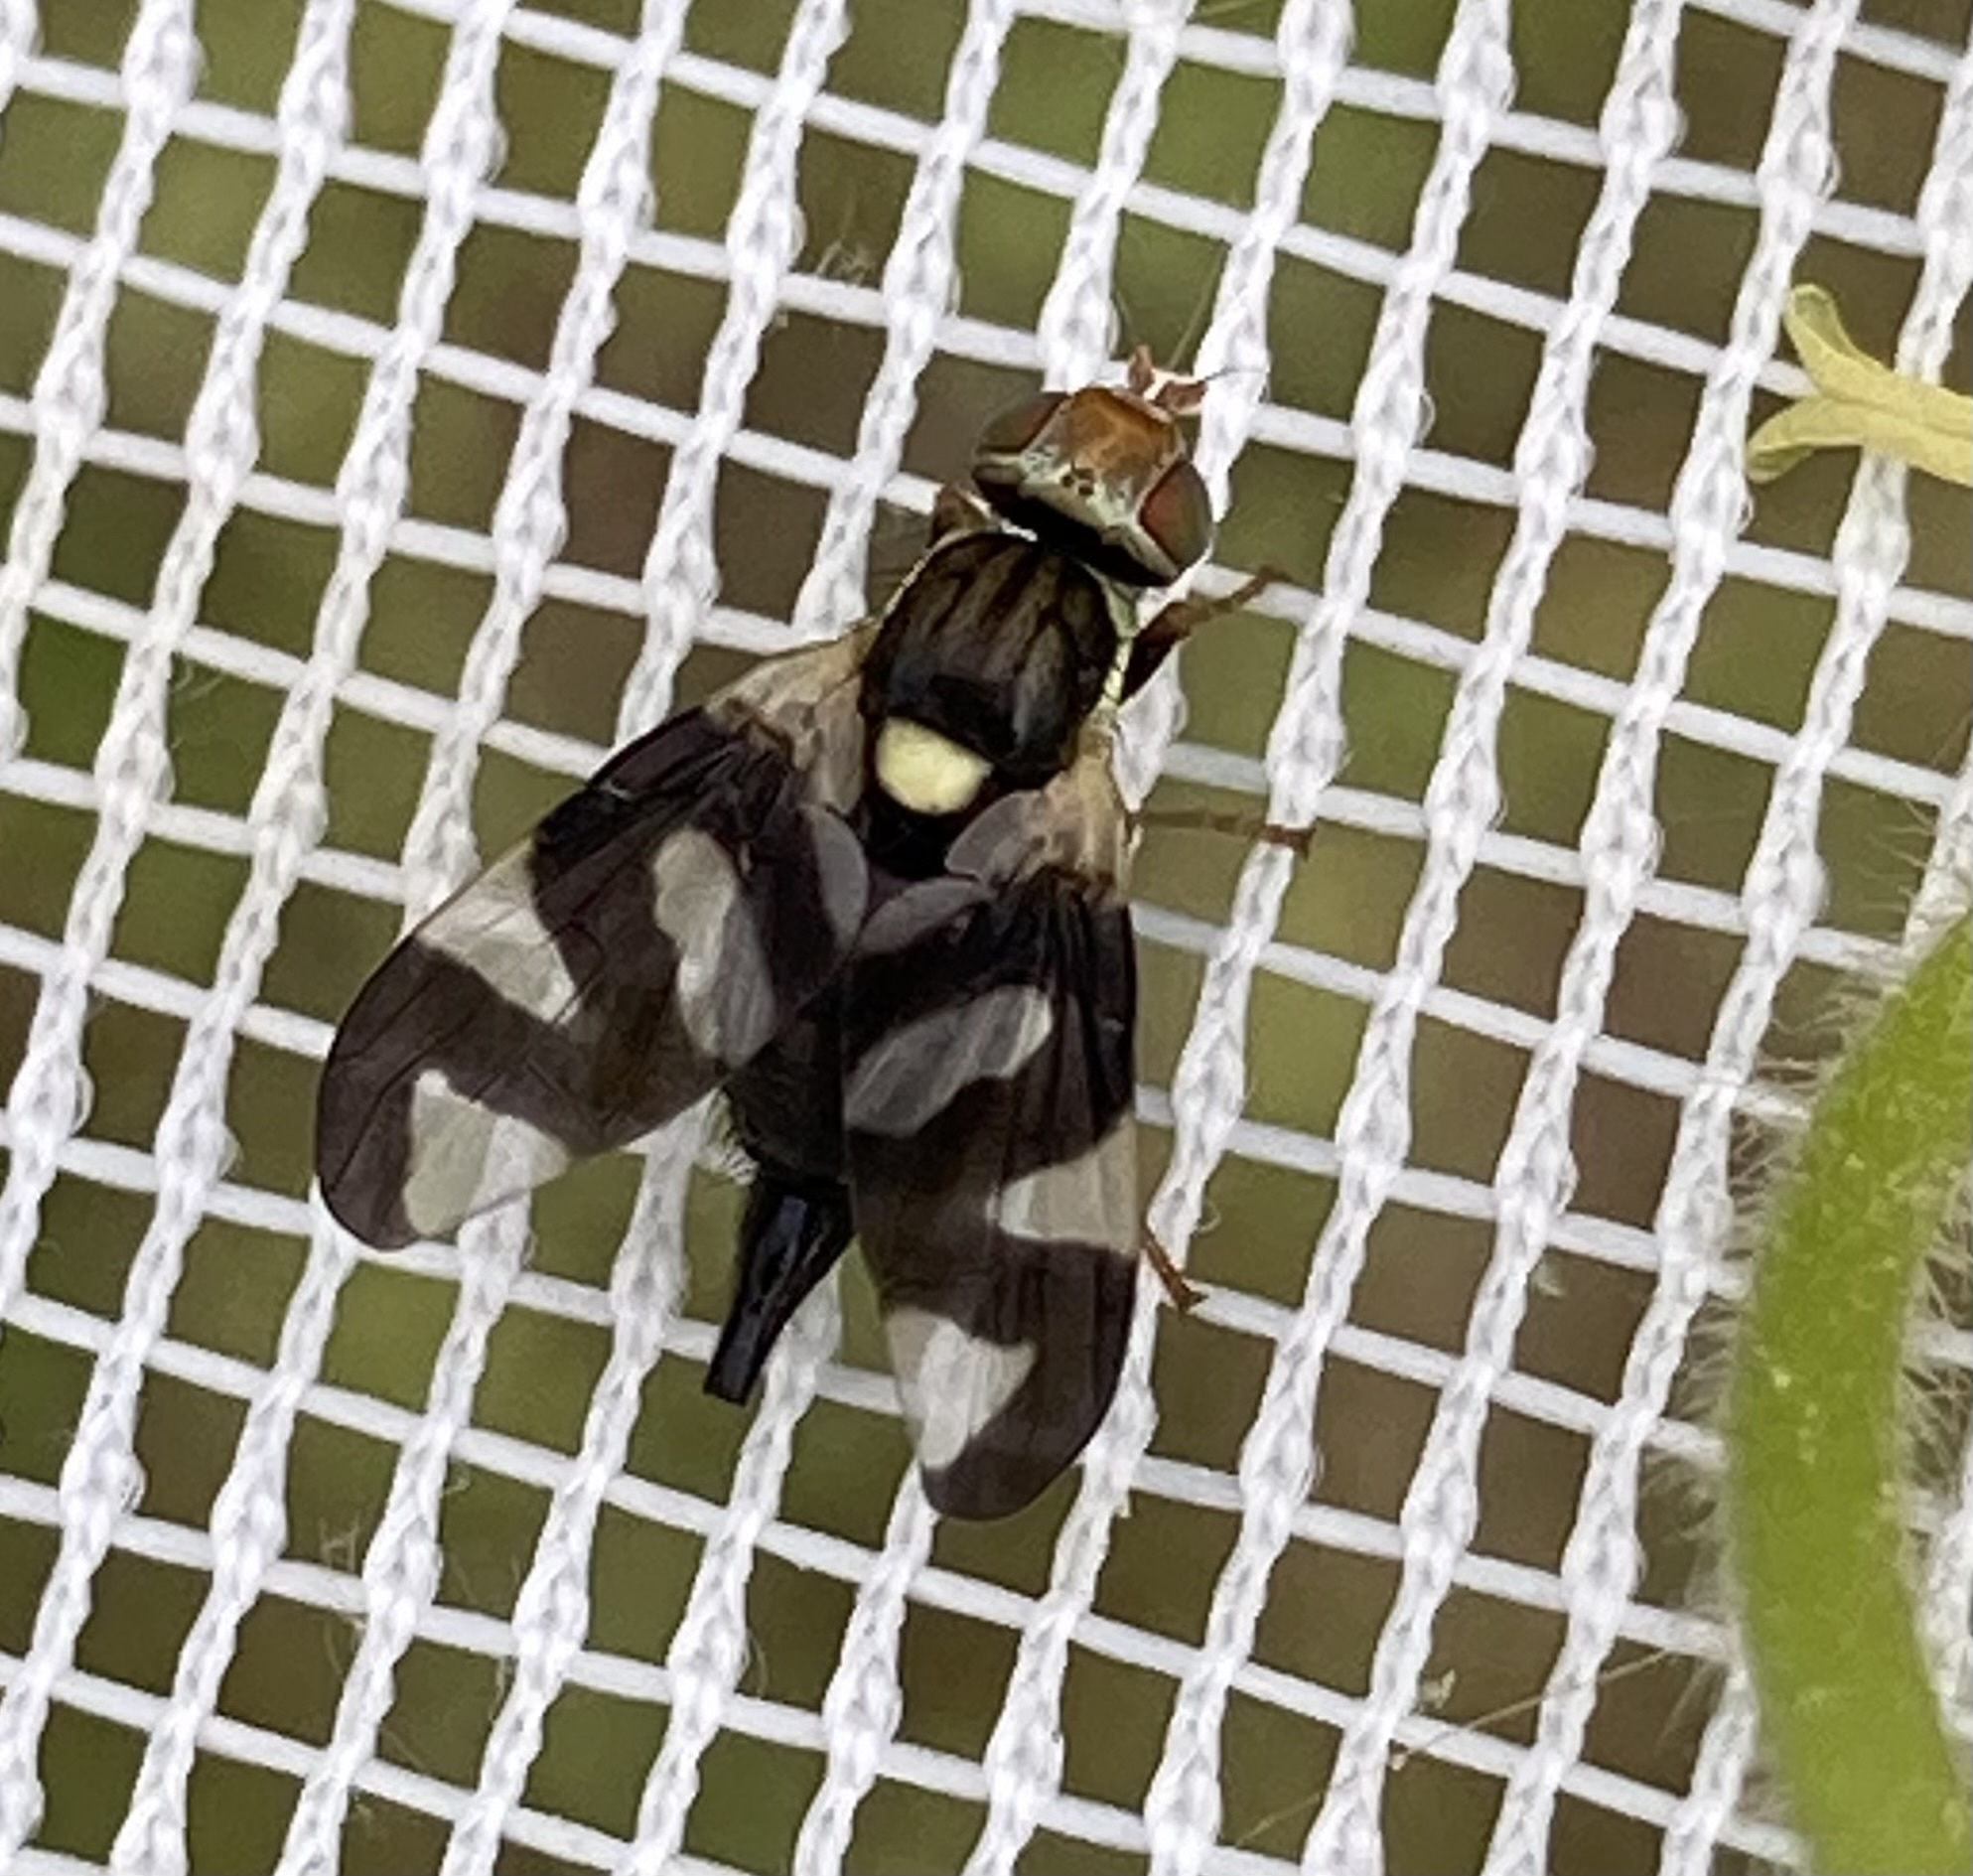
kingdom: Animalia
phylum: Arthropoda
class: Insecta
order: Diptera
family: Tephritidae
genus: Urophora
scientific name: Urophora cardui
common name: Fruit fly
